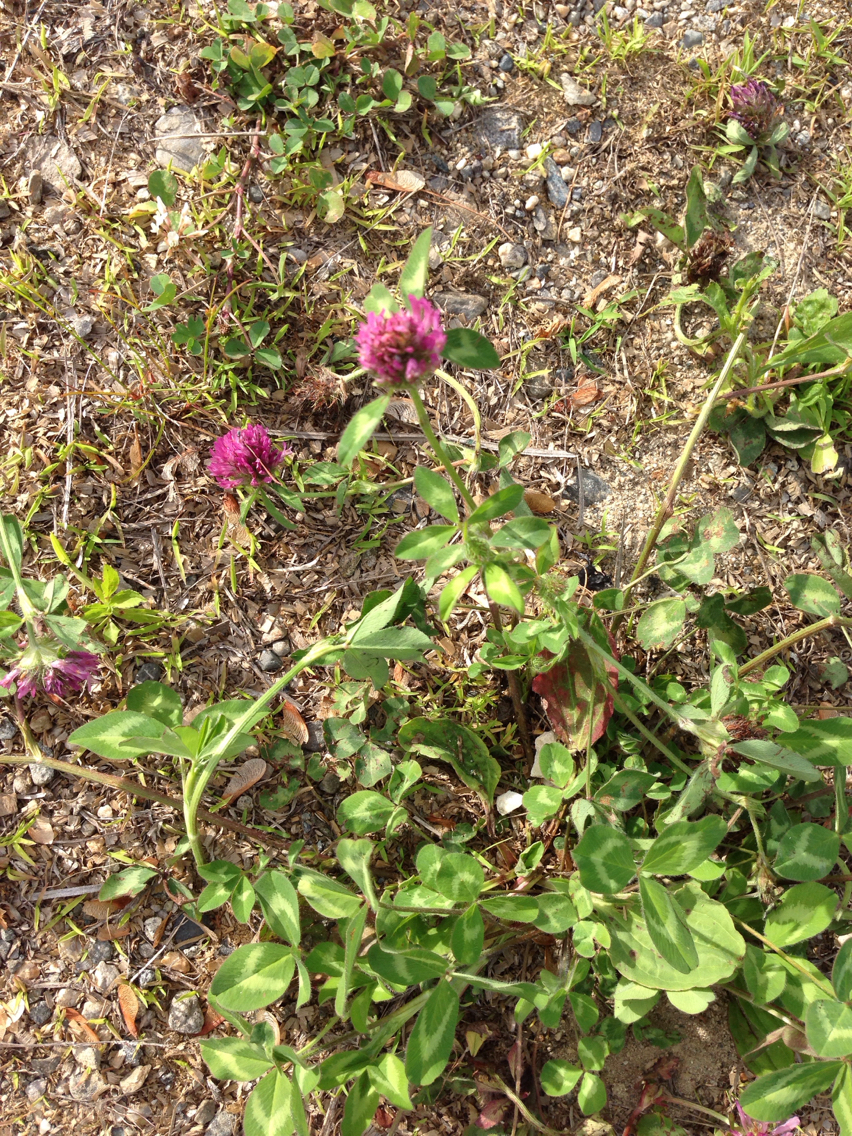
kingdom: Plantae
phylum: Tracheophyta
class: Magnoliopsida
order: Fabales
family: Fabaceae
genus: Trifolium
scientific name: Trifolium pratense
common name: Red clover
